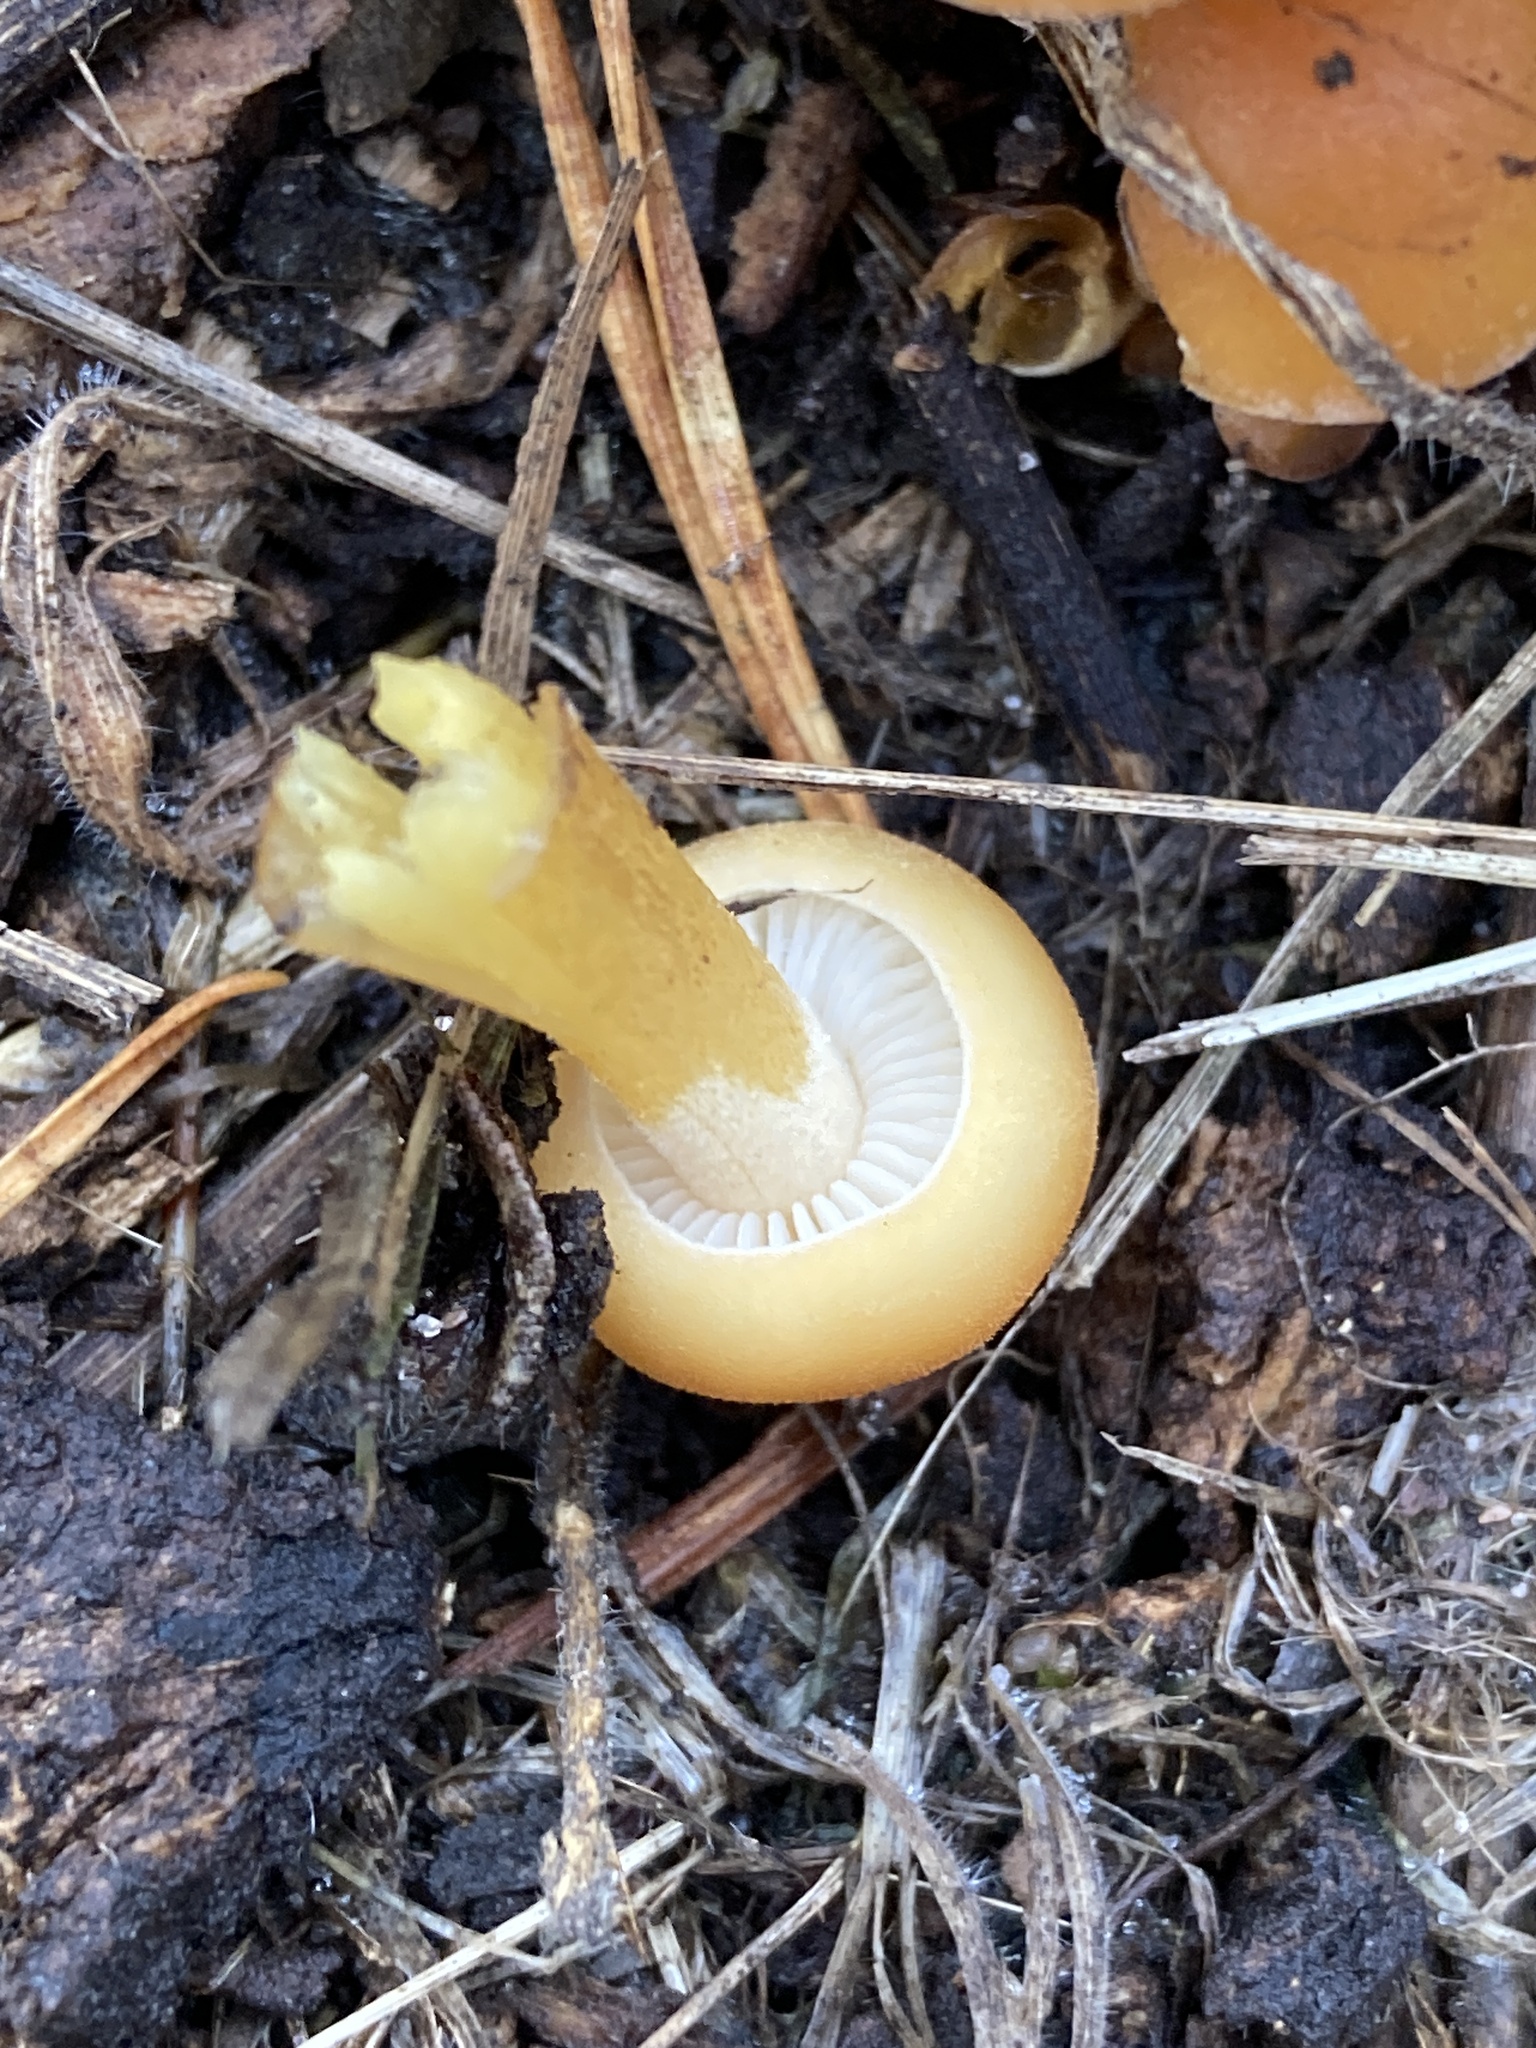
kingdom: Fungi
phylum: Basidiomycota
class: Agaricomycetes
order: Agaricales
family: Physalacriaceae
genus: Flammulina
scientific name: Flammulina
